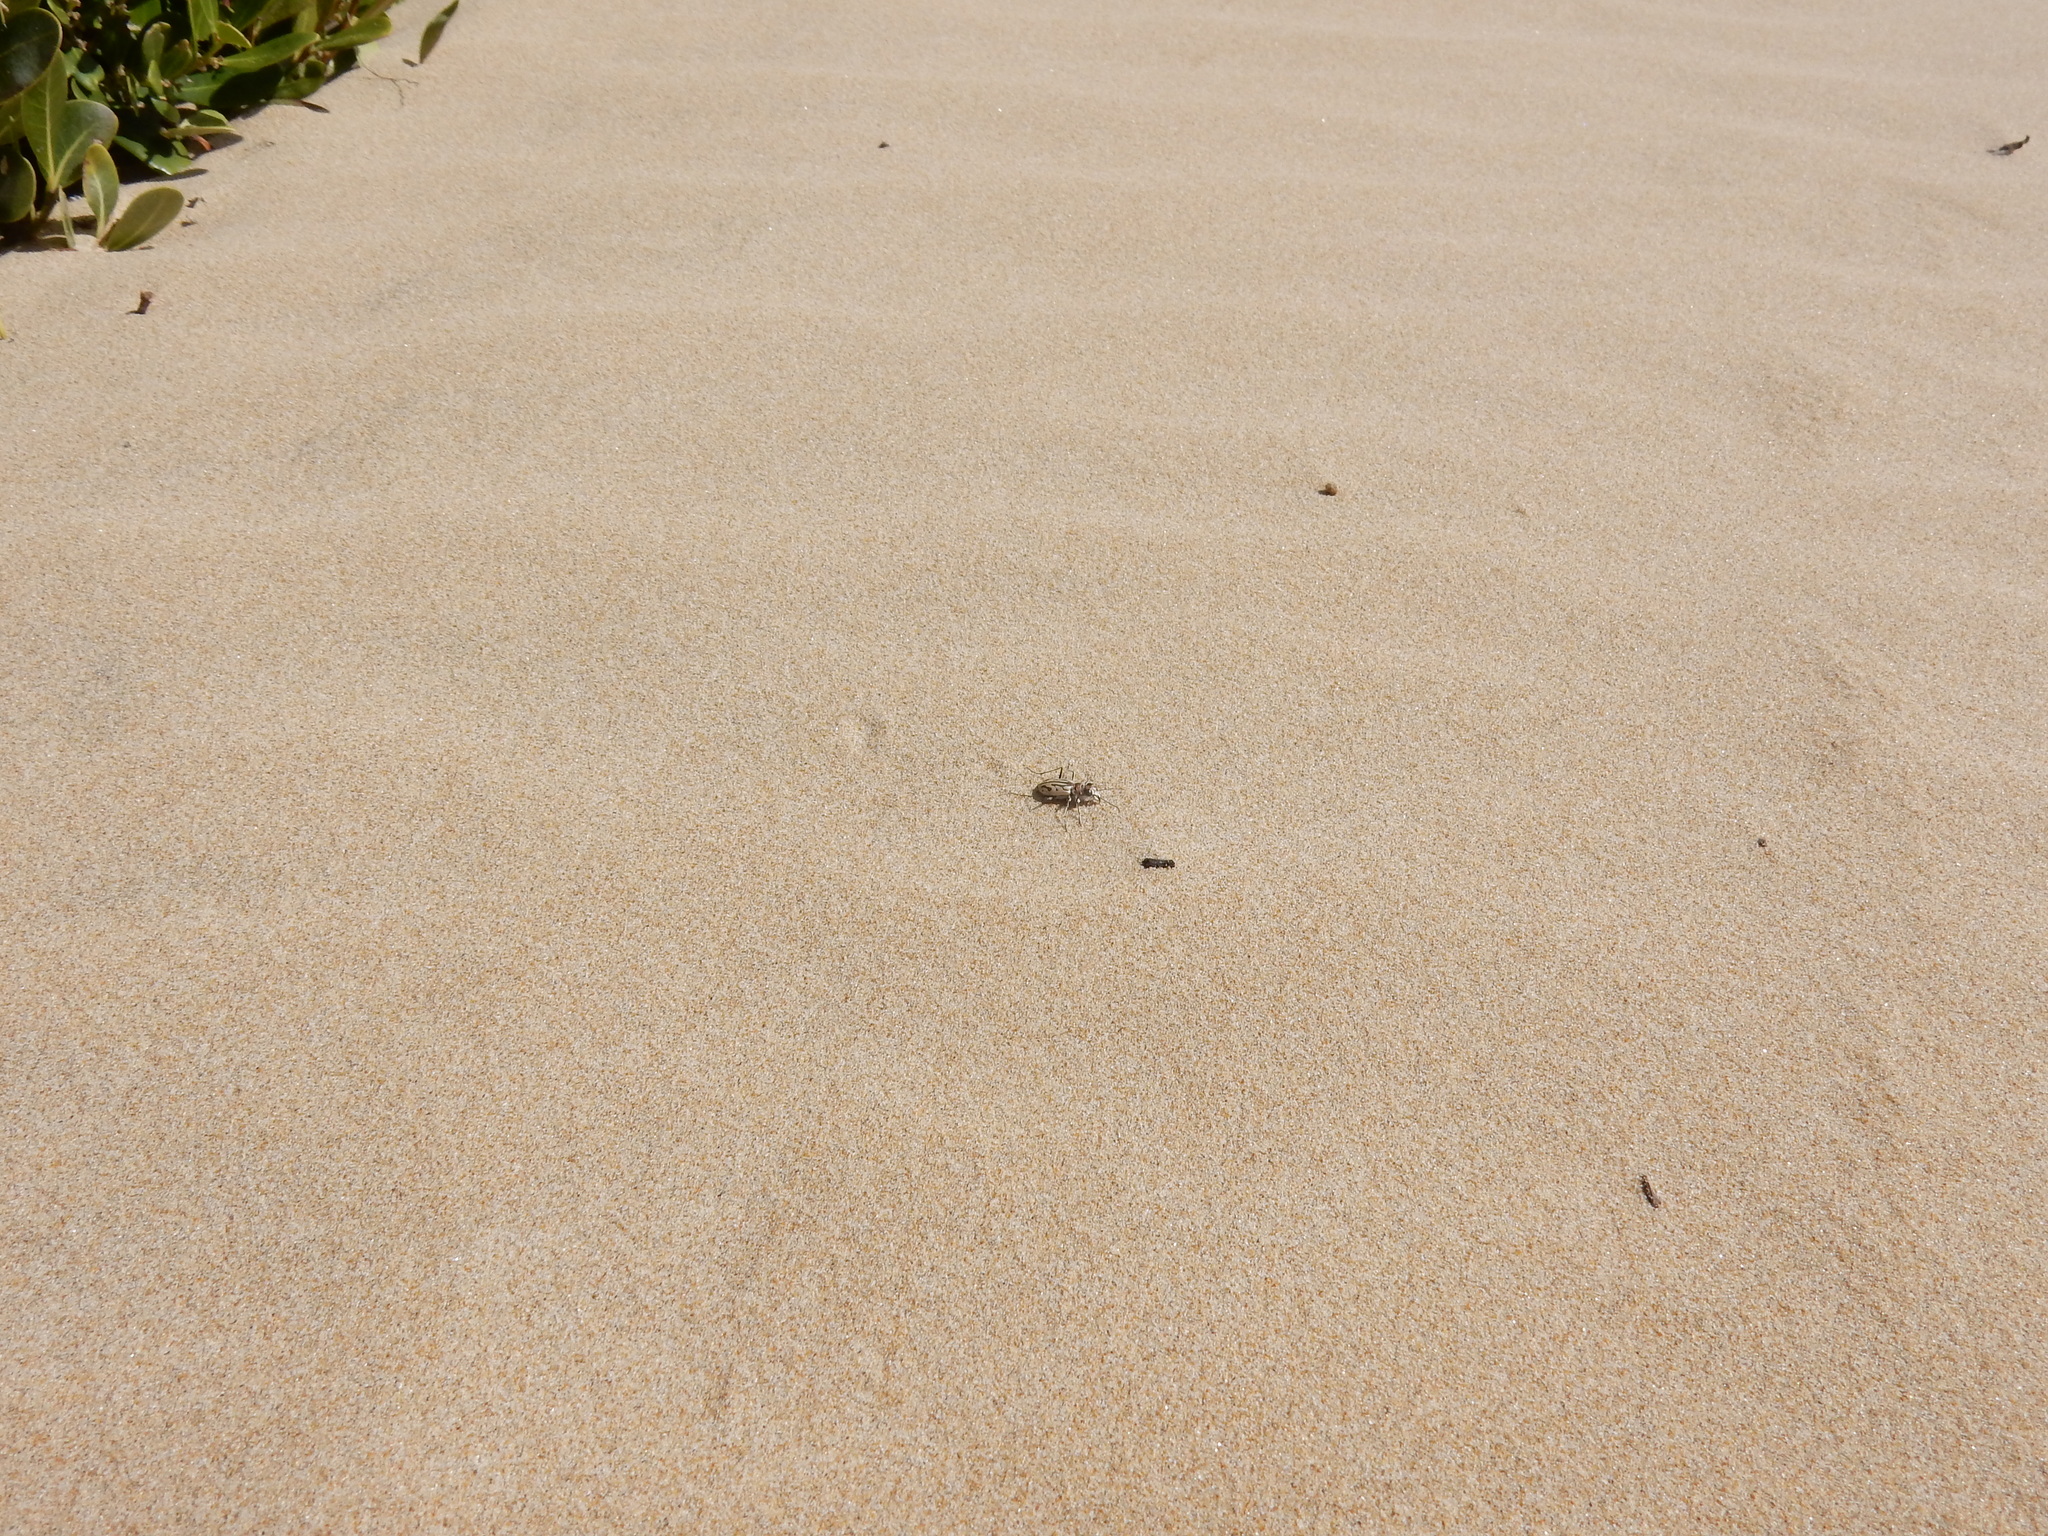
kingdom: Animalia
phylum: Arthropoda
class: Insecta
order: Coleoptera
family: Carabidae
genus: Habrodera
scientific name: Habrodera capensis
